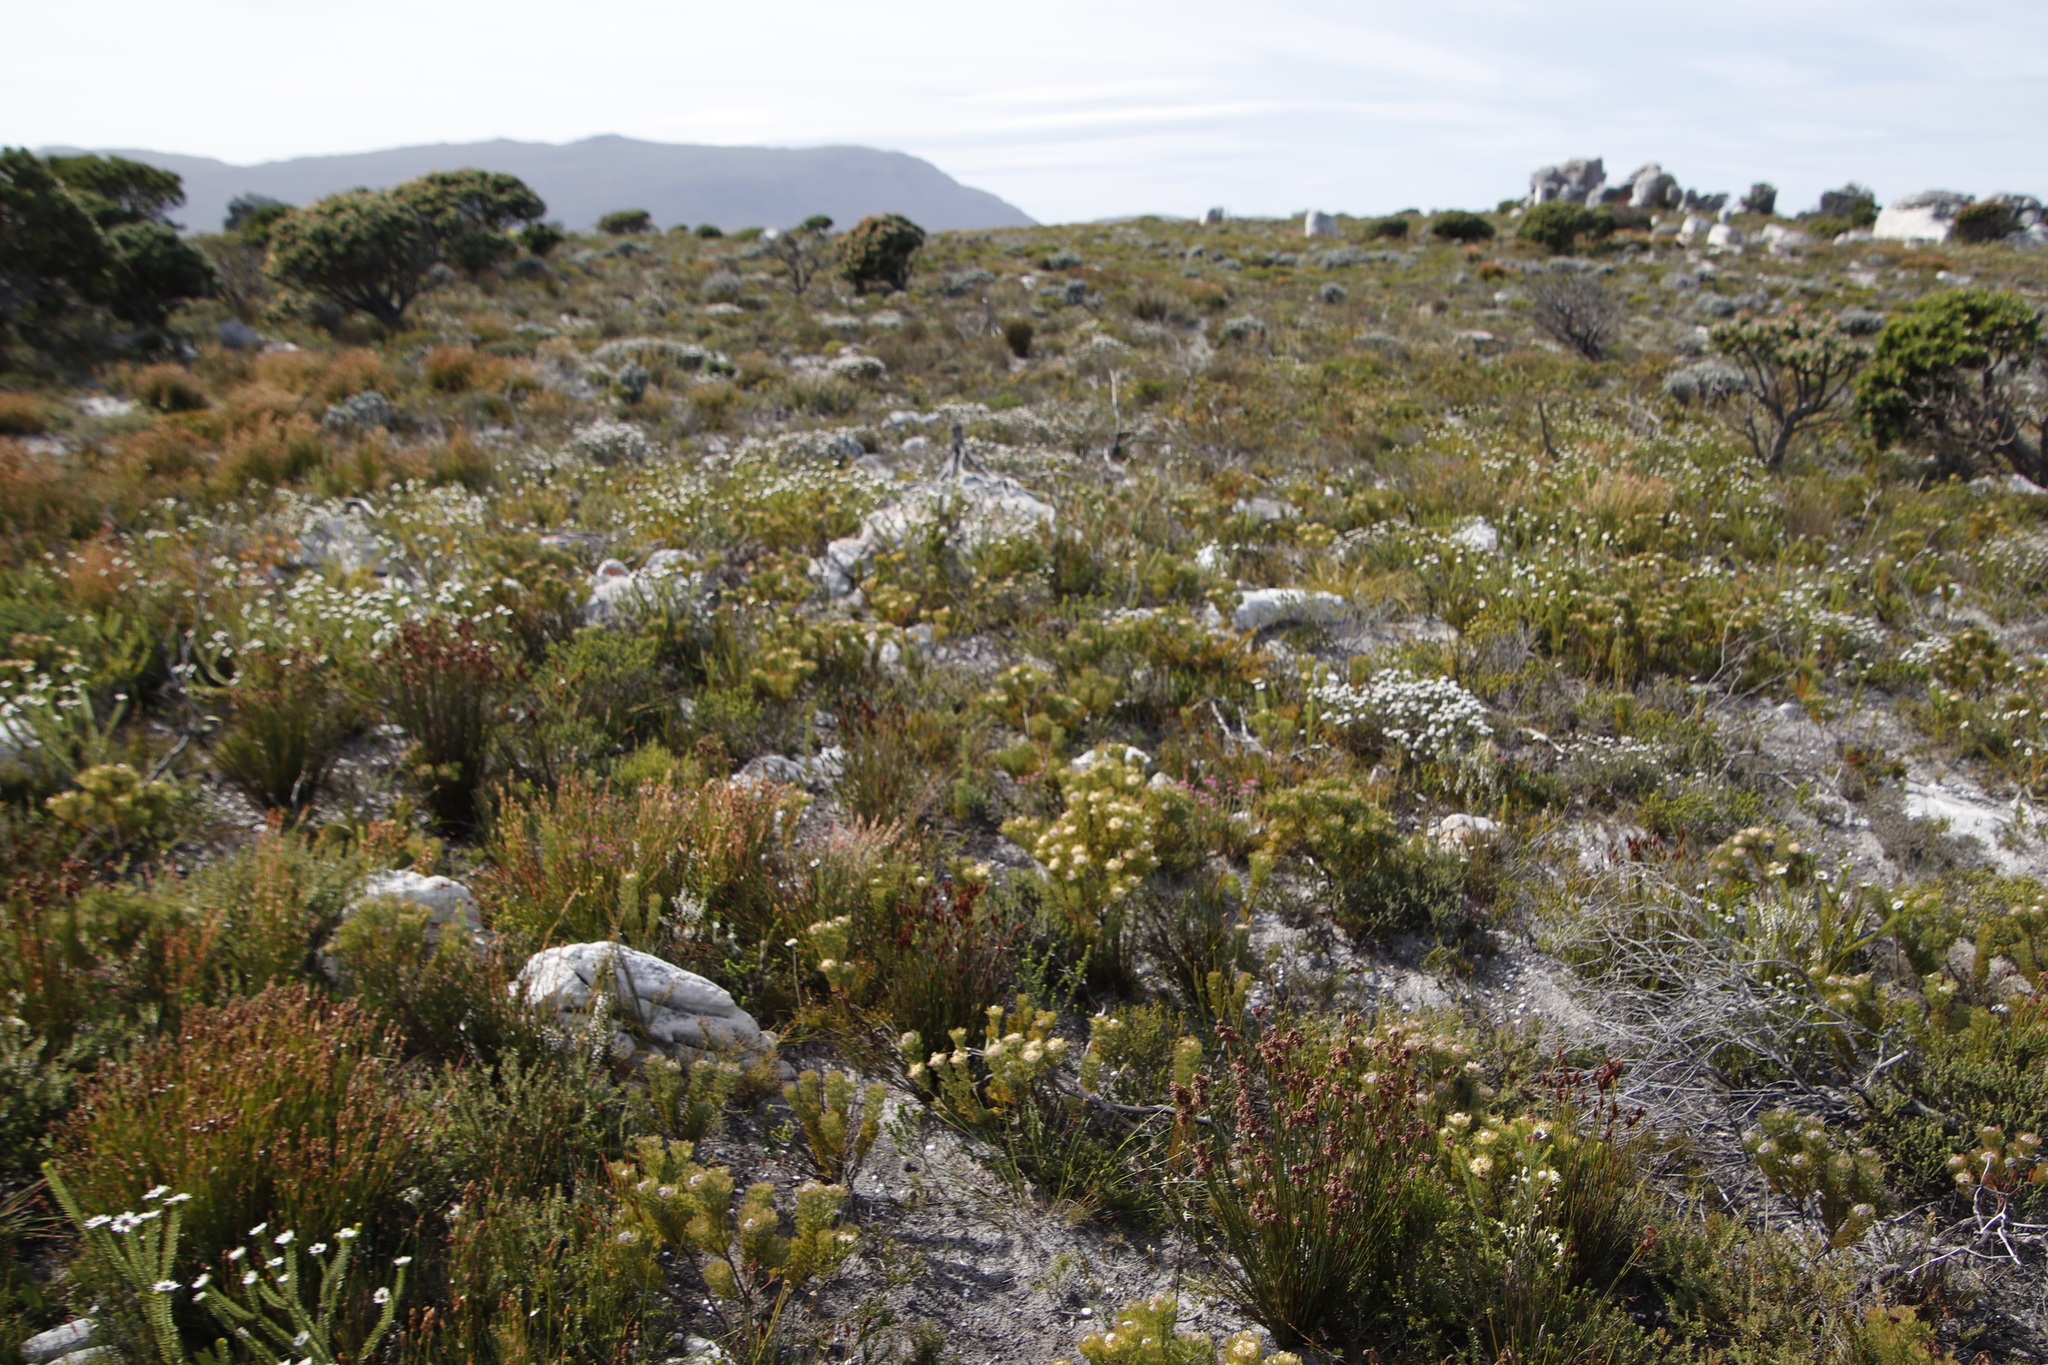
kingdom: Plantae
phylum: Tracheophyta
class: Magnoliopsida
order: Proteales
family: Proteaceae
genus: Serruria
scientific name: Serruria villosa
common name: Golden spiderhead
